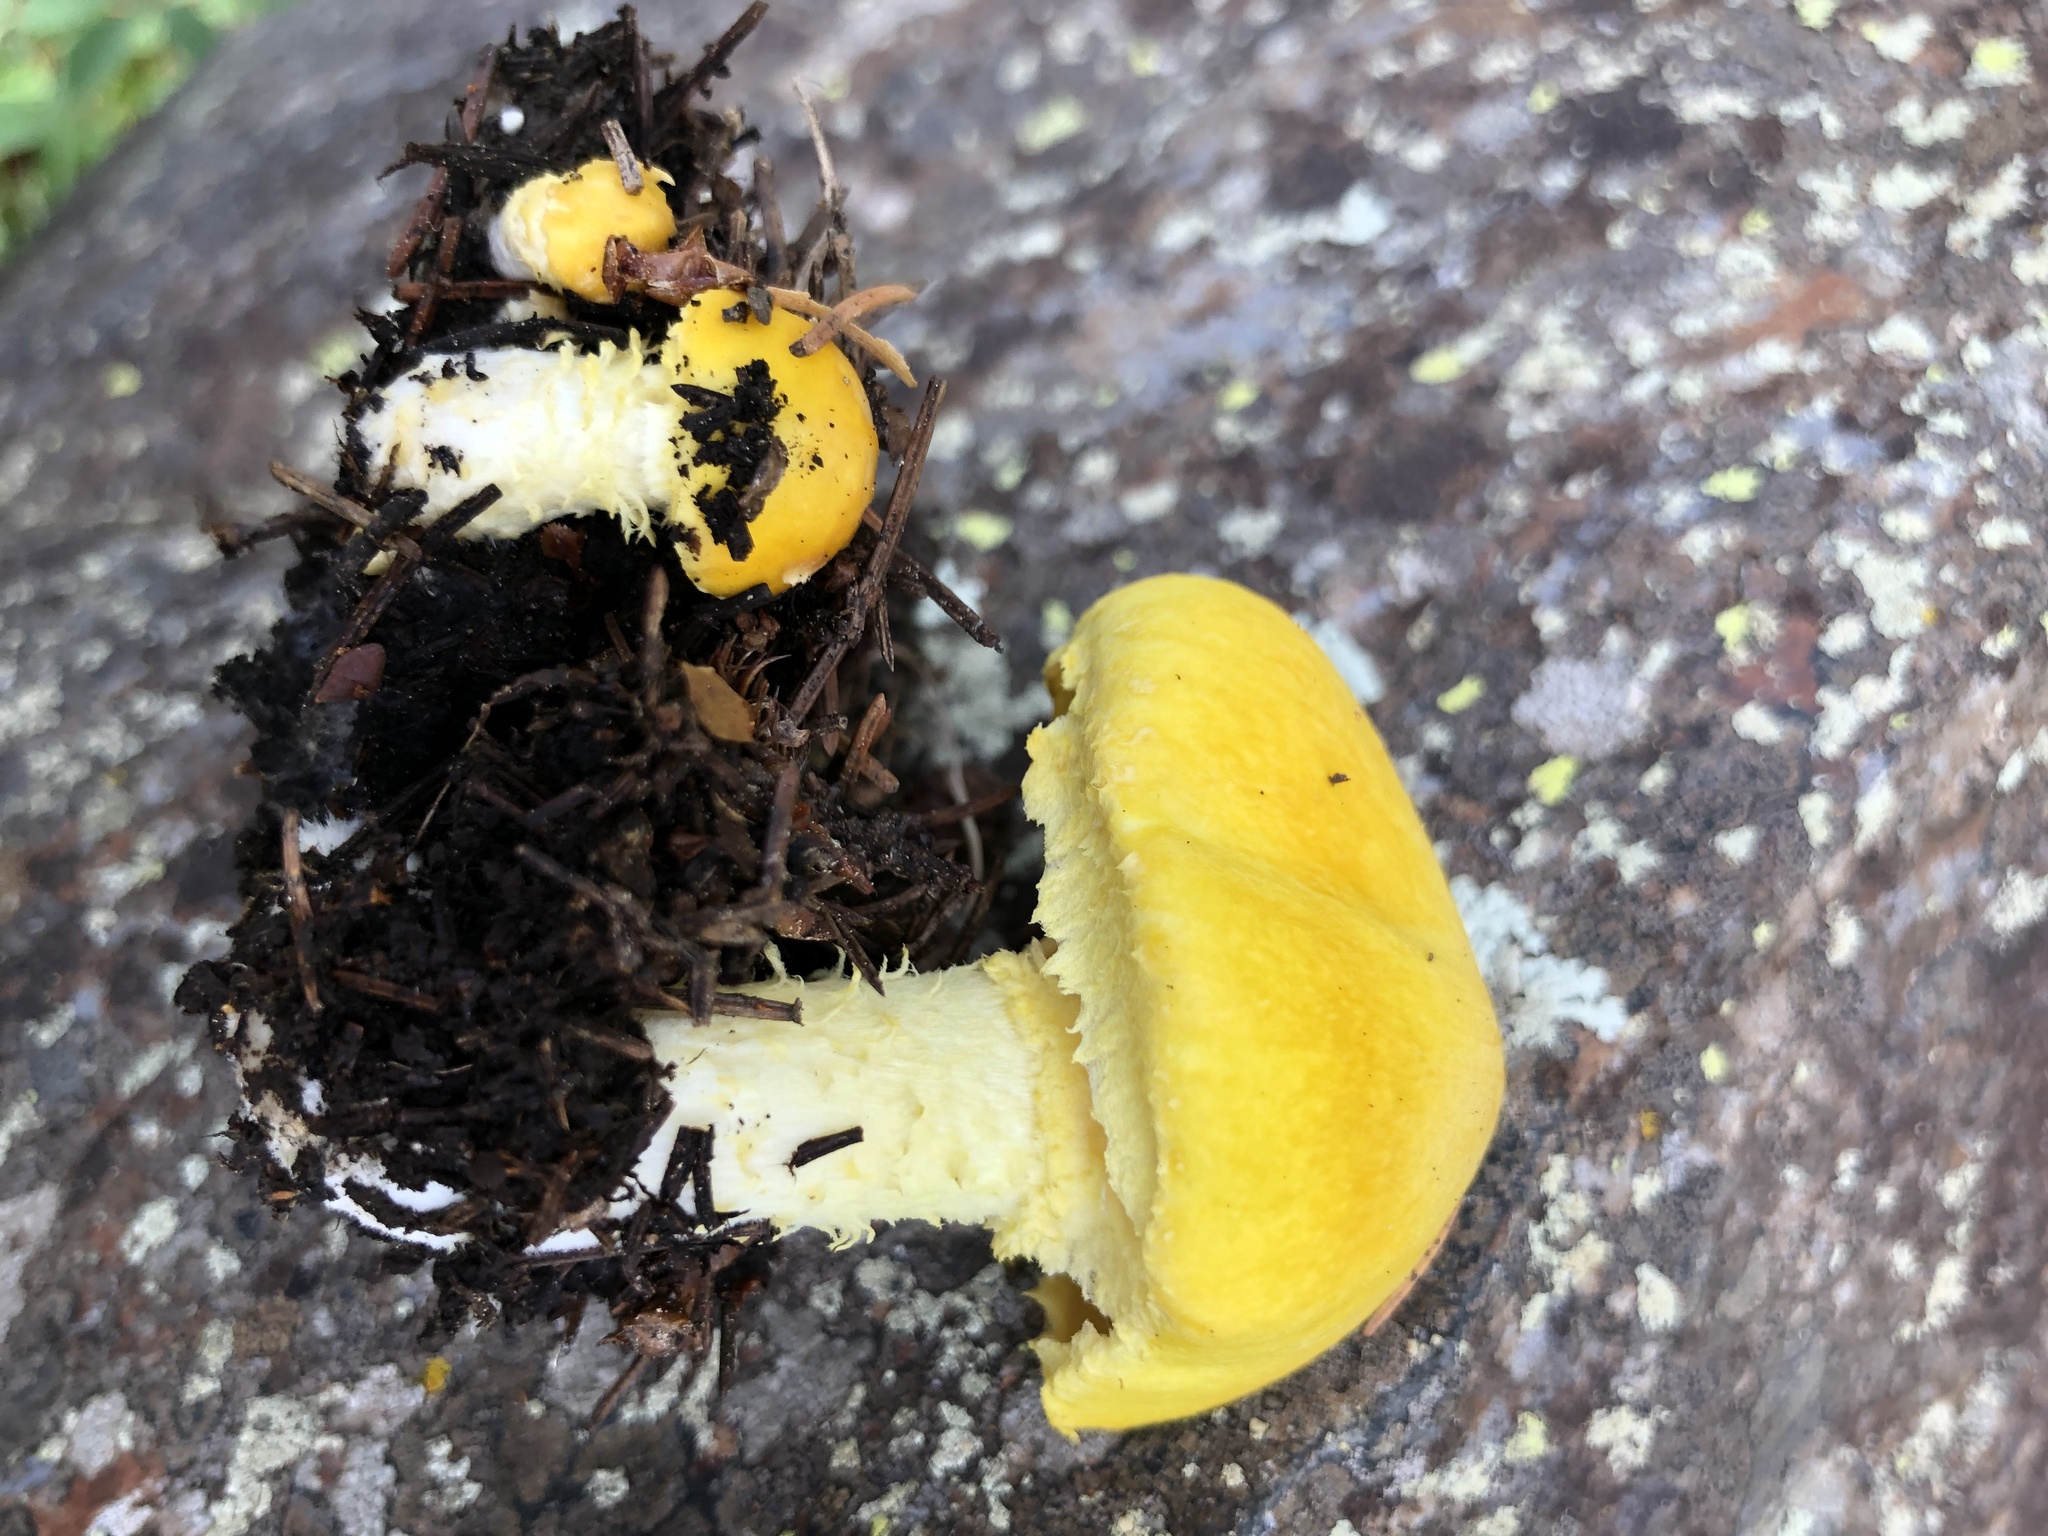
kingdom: Fungi
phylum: Basidiomycota
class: Agaricomycetes
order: Agaricales
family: Agaricaceae
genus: Floccularia
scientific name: Floccularia albolanaripes
